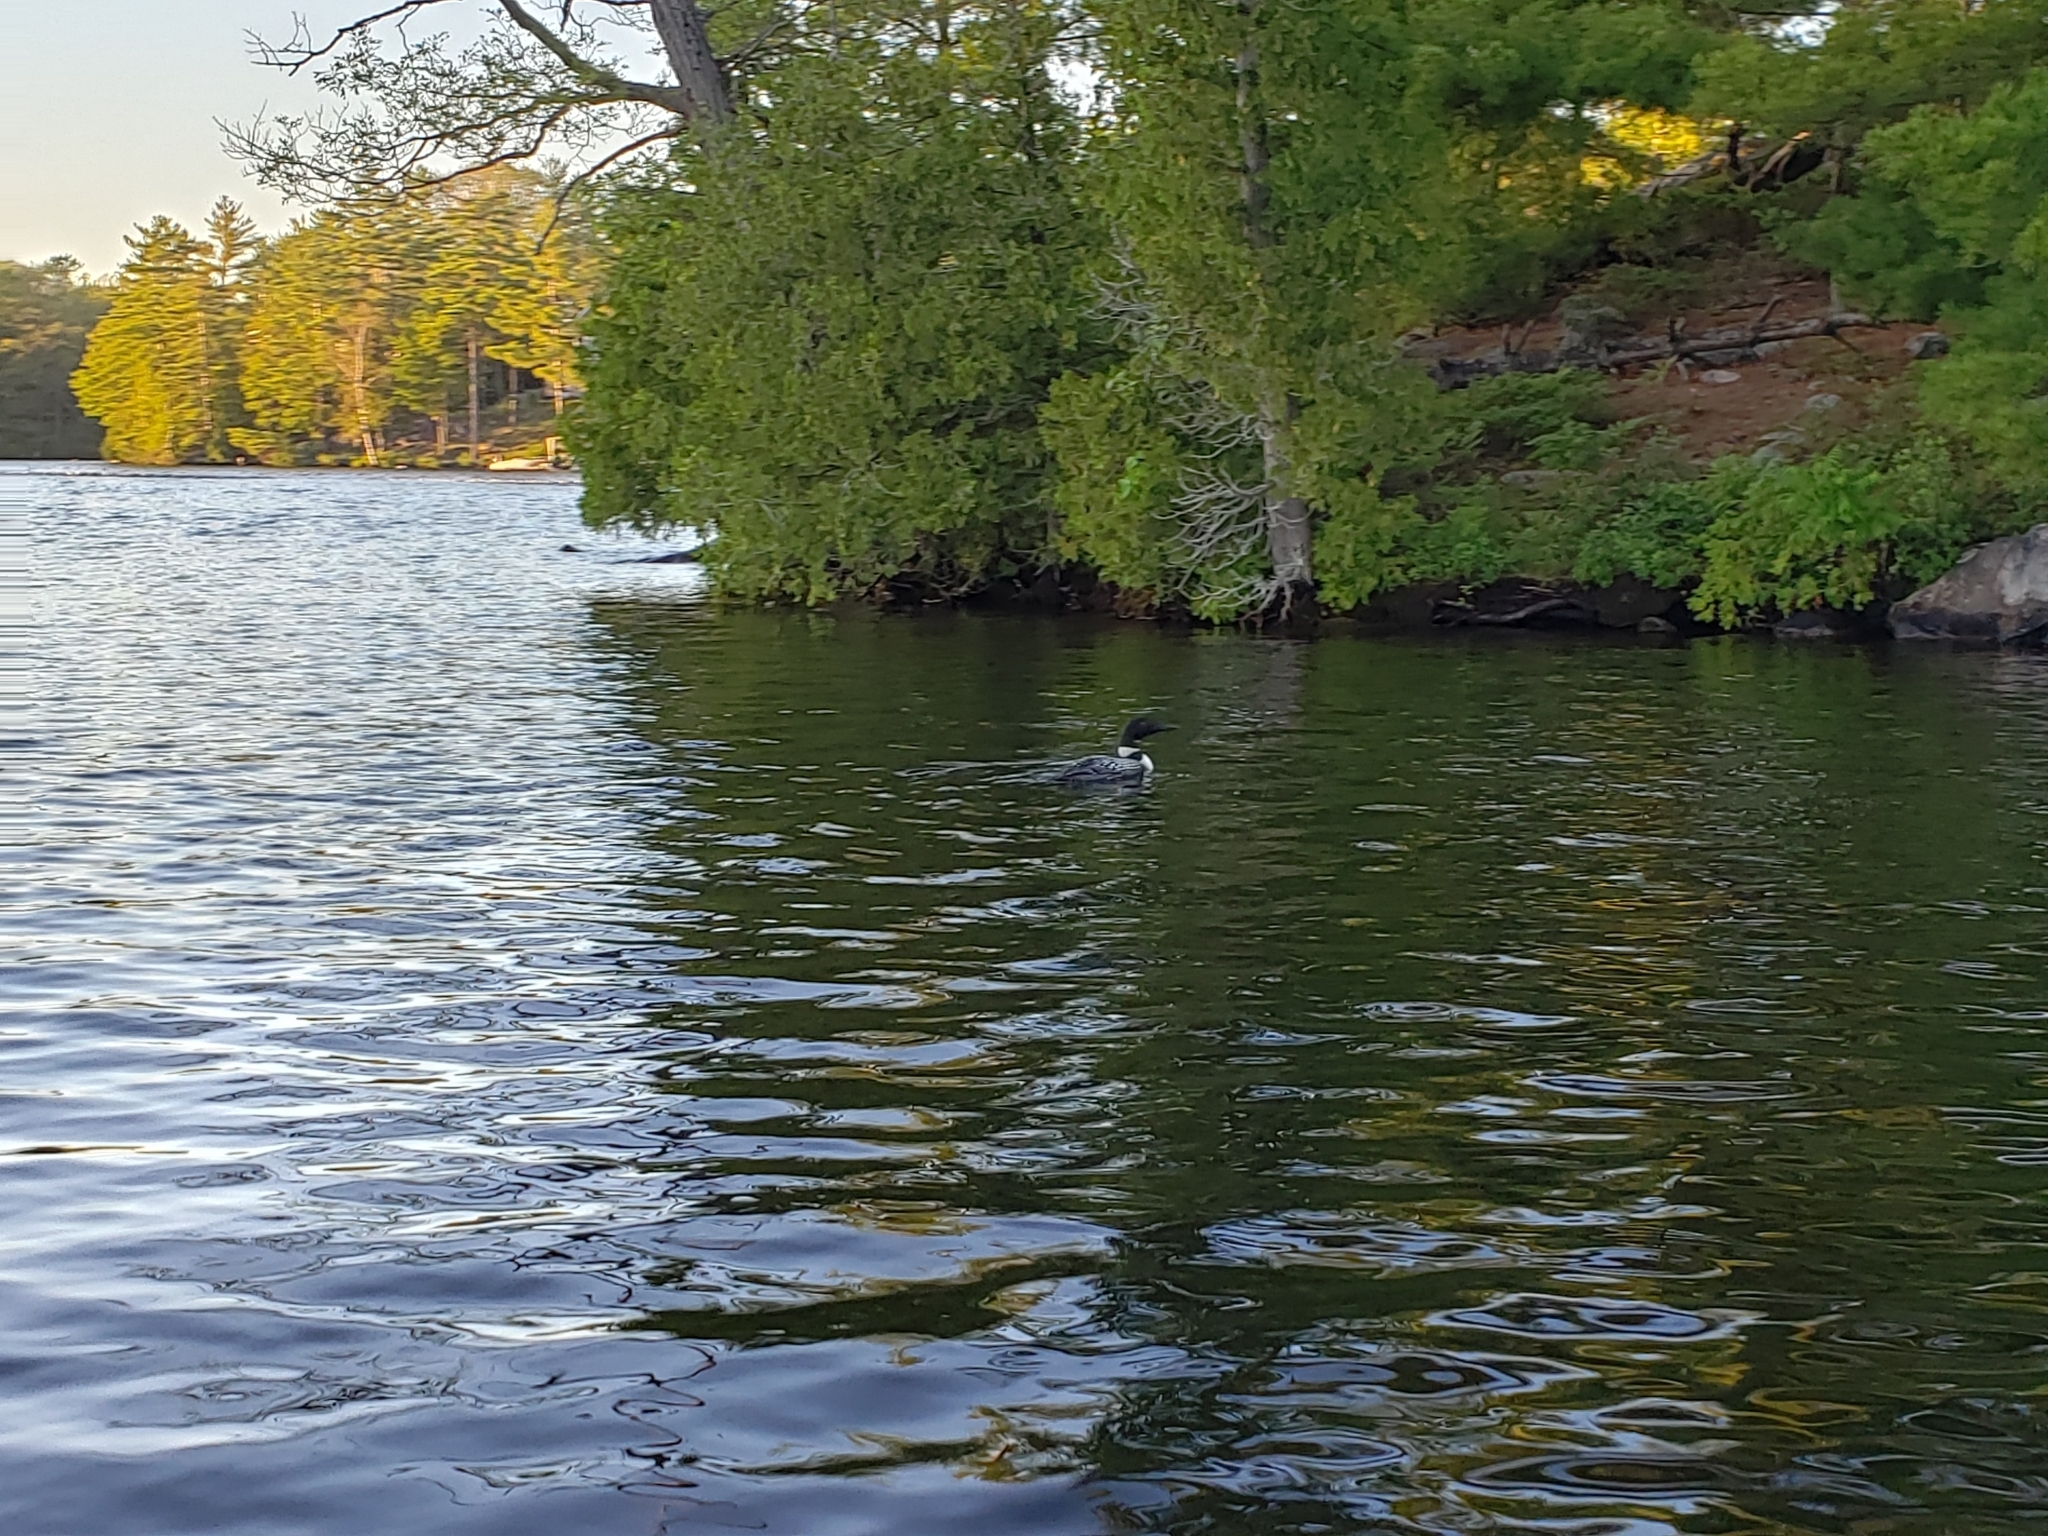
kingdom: Animalia
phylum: Chordata
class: Aves
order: Gaviiformes
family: Gaviidae
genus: Gavia
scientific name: Gavia immer
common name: Common loon
